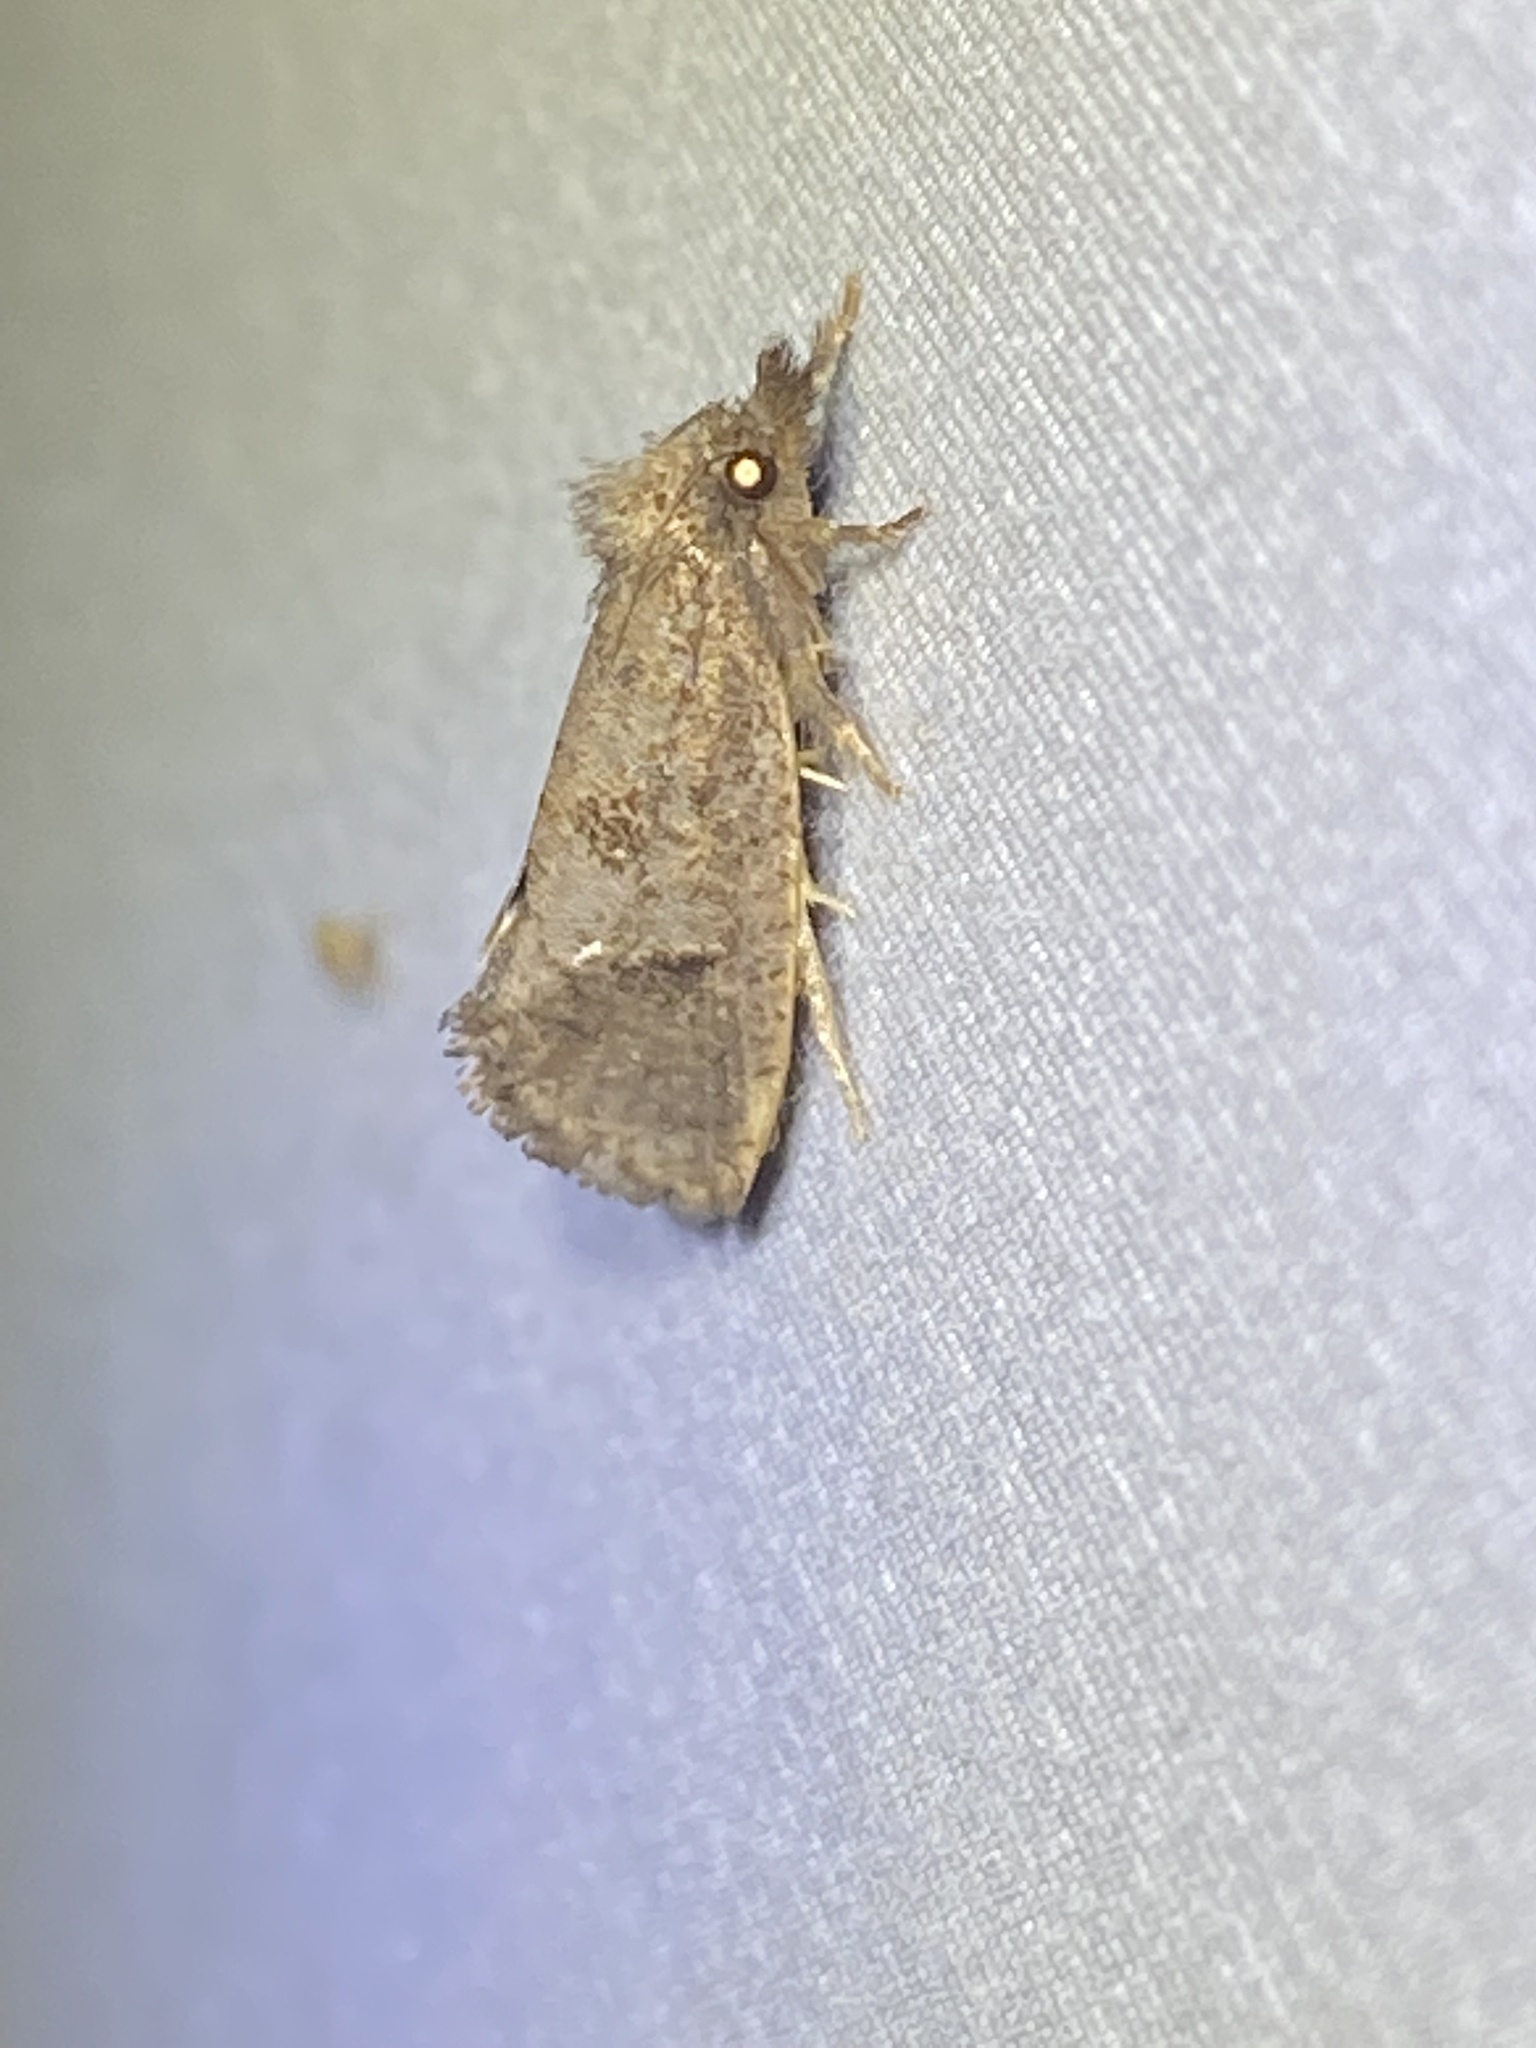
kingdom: Animalia
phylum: Arthropoda
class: Insecta
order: Lepidoptera
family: Tineidae
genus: Acrolophus
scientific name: Acrolophus texanella
